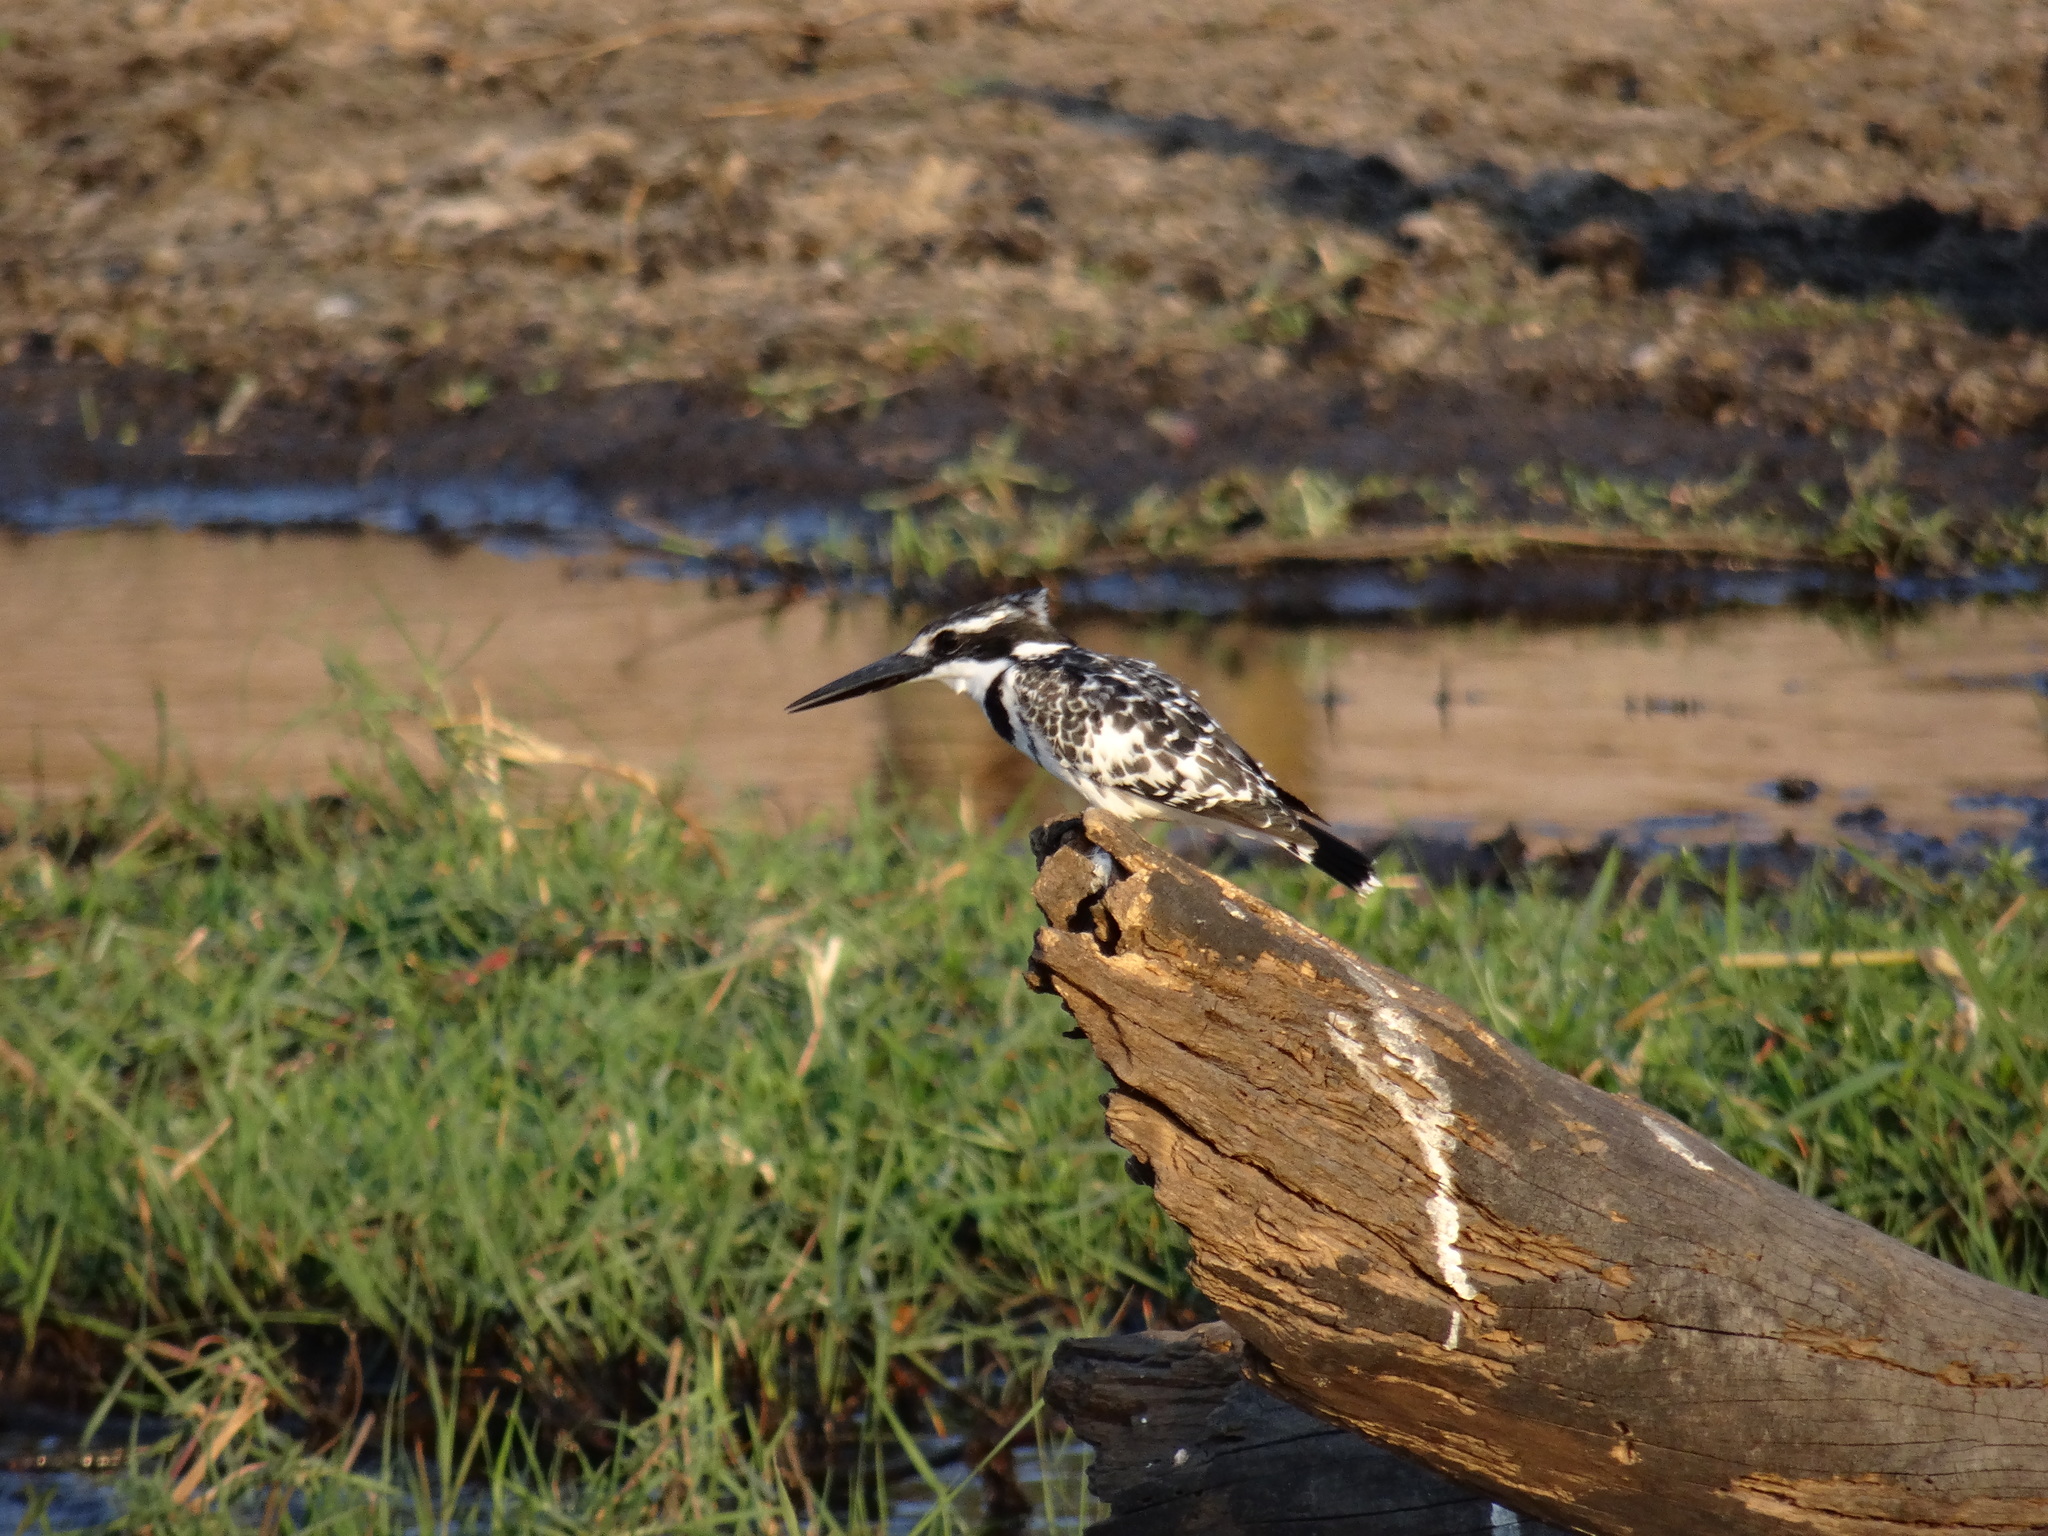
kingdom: Animalia
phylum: Chordata
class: Aves
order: Coraciiformes
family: Alcedinidae
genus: Ceryle
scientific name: Ceryle rudis
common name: Pied kingfisher
